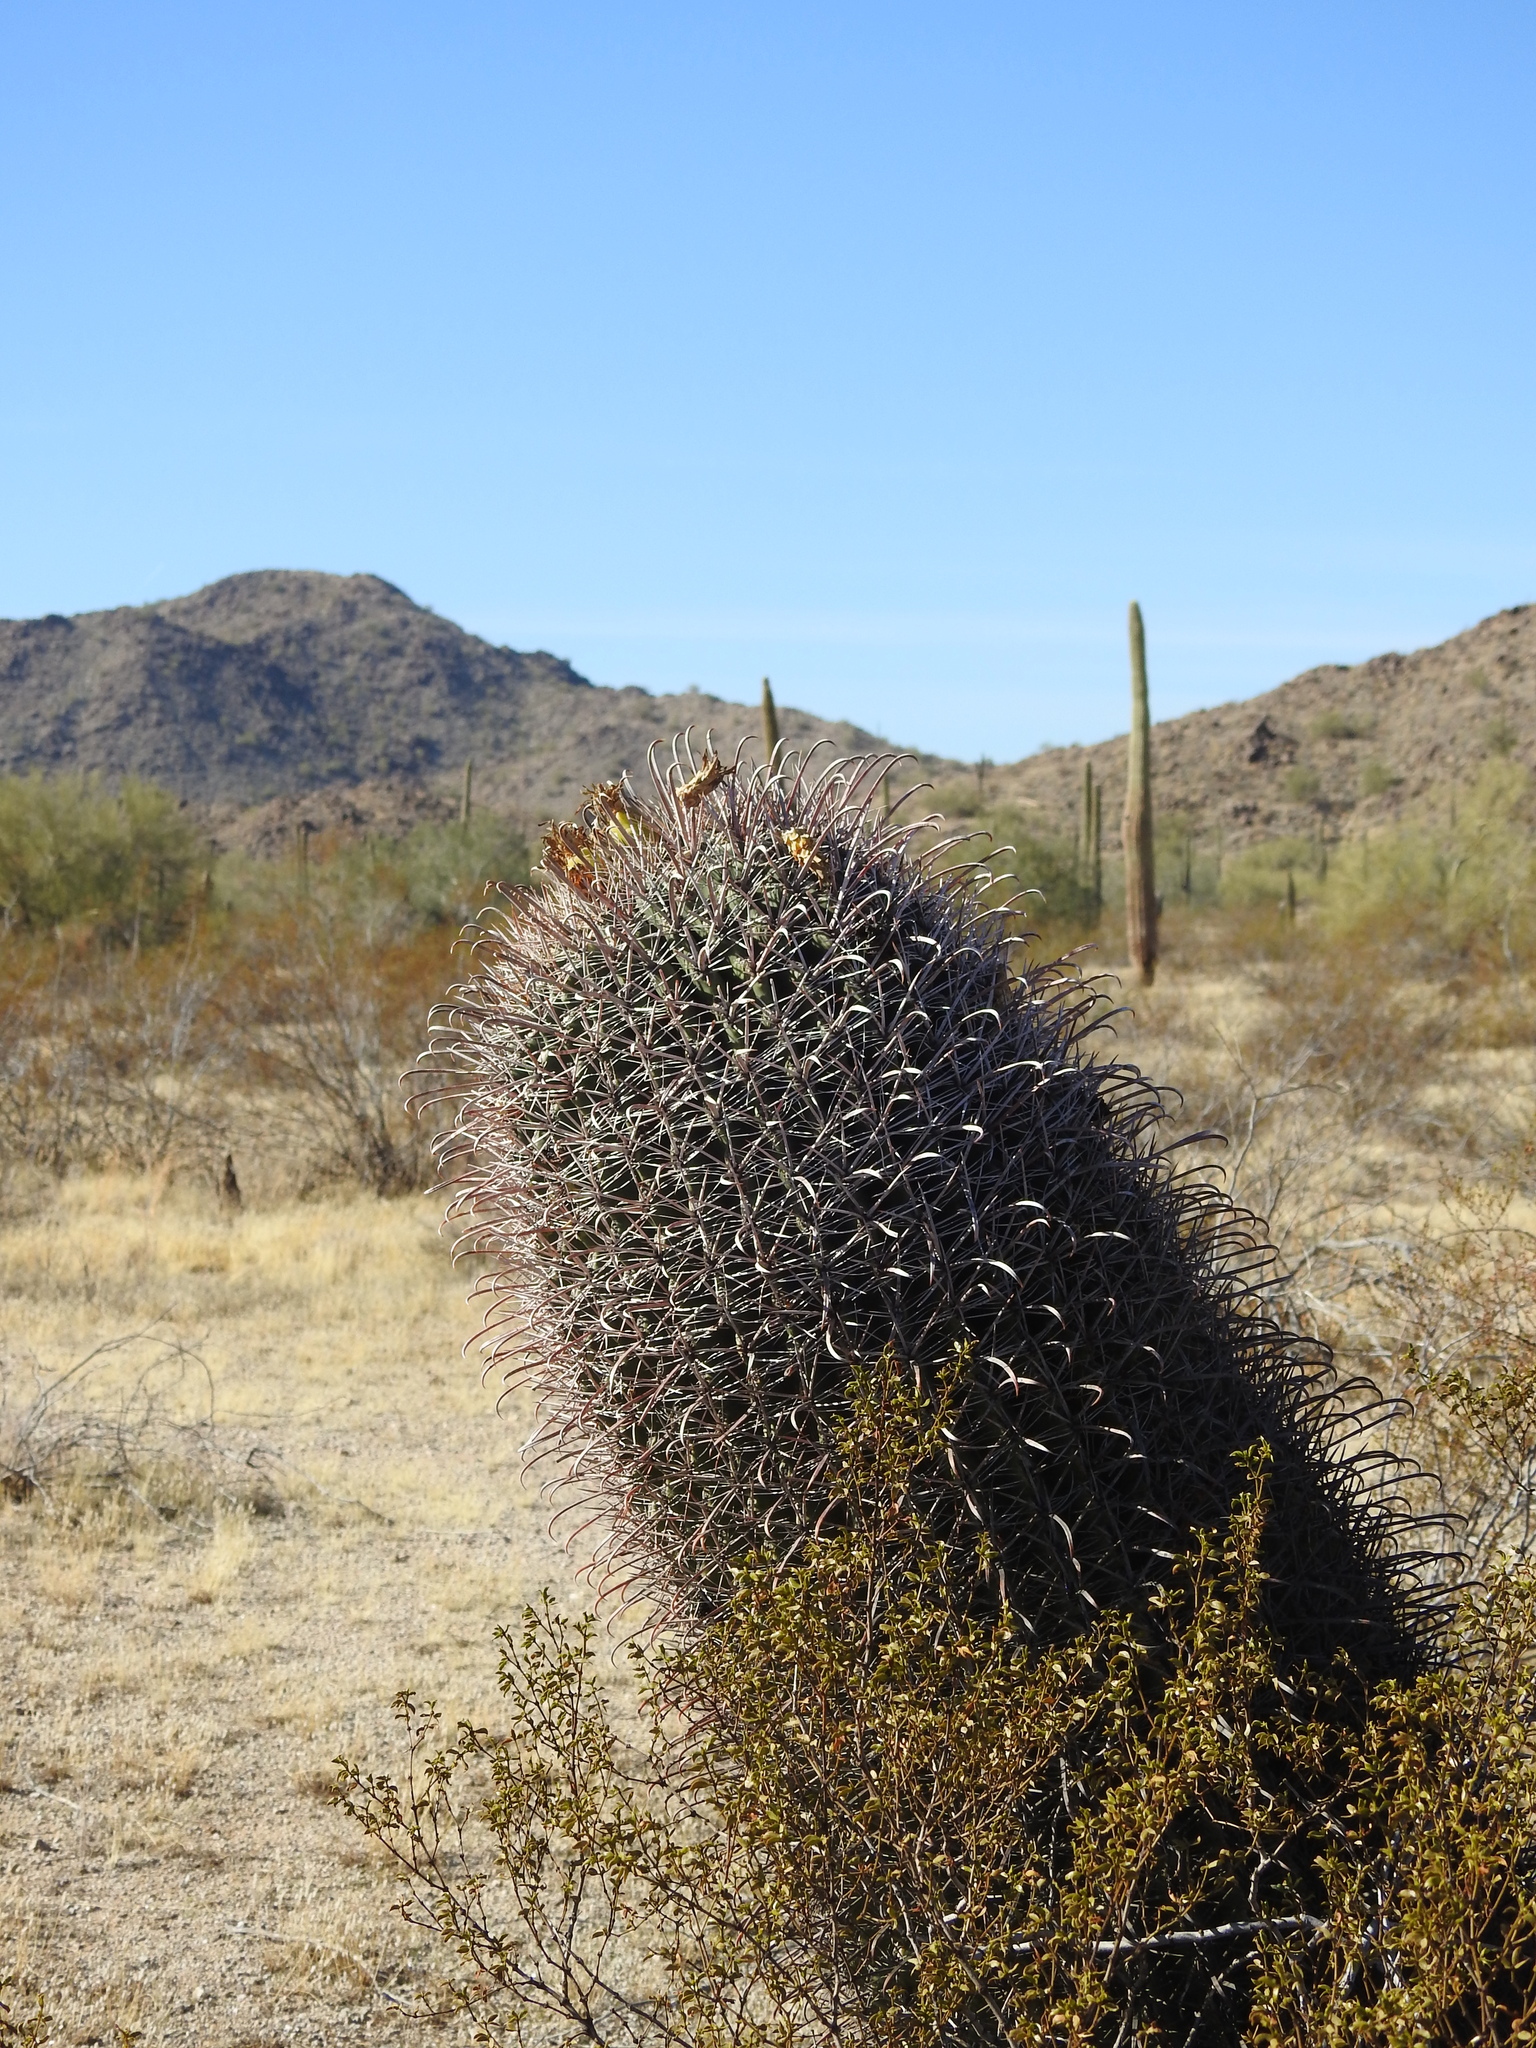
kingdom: Plantae
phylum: Tracheophyta
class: Magnoliopsida
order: Caryophyllales
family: Cactaceae
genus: Ferocactus
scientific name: Ferocactus cylindraceus
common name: California barrel cactus
